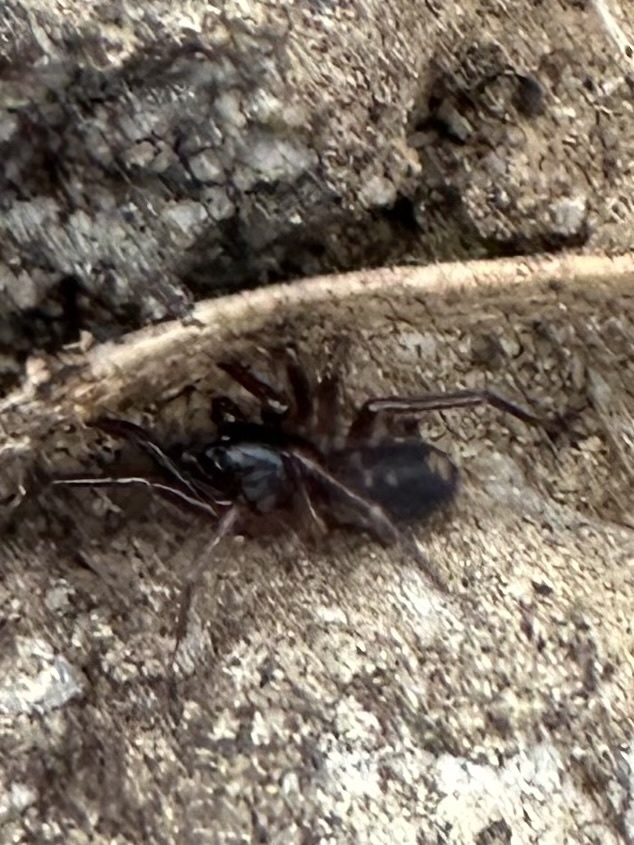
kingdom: Animalia
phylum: Arthropoda
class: Arachnida
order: Araneae
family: Corinnidae
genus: Falconina
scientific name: Falconina gracilis
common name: Antmimic spider
